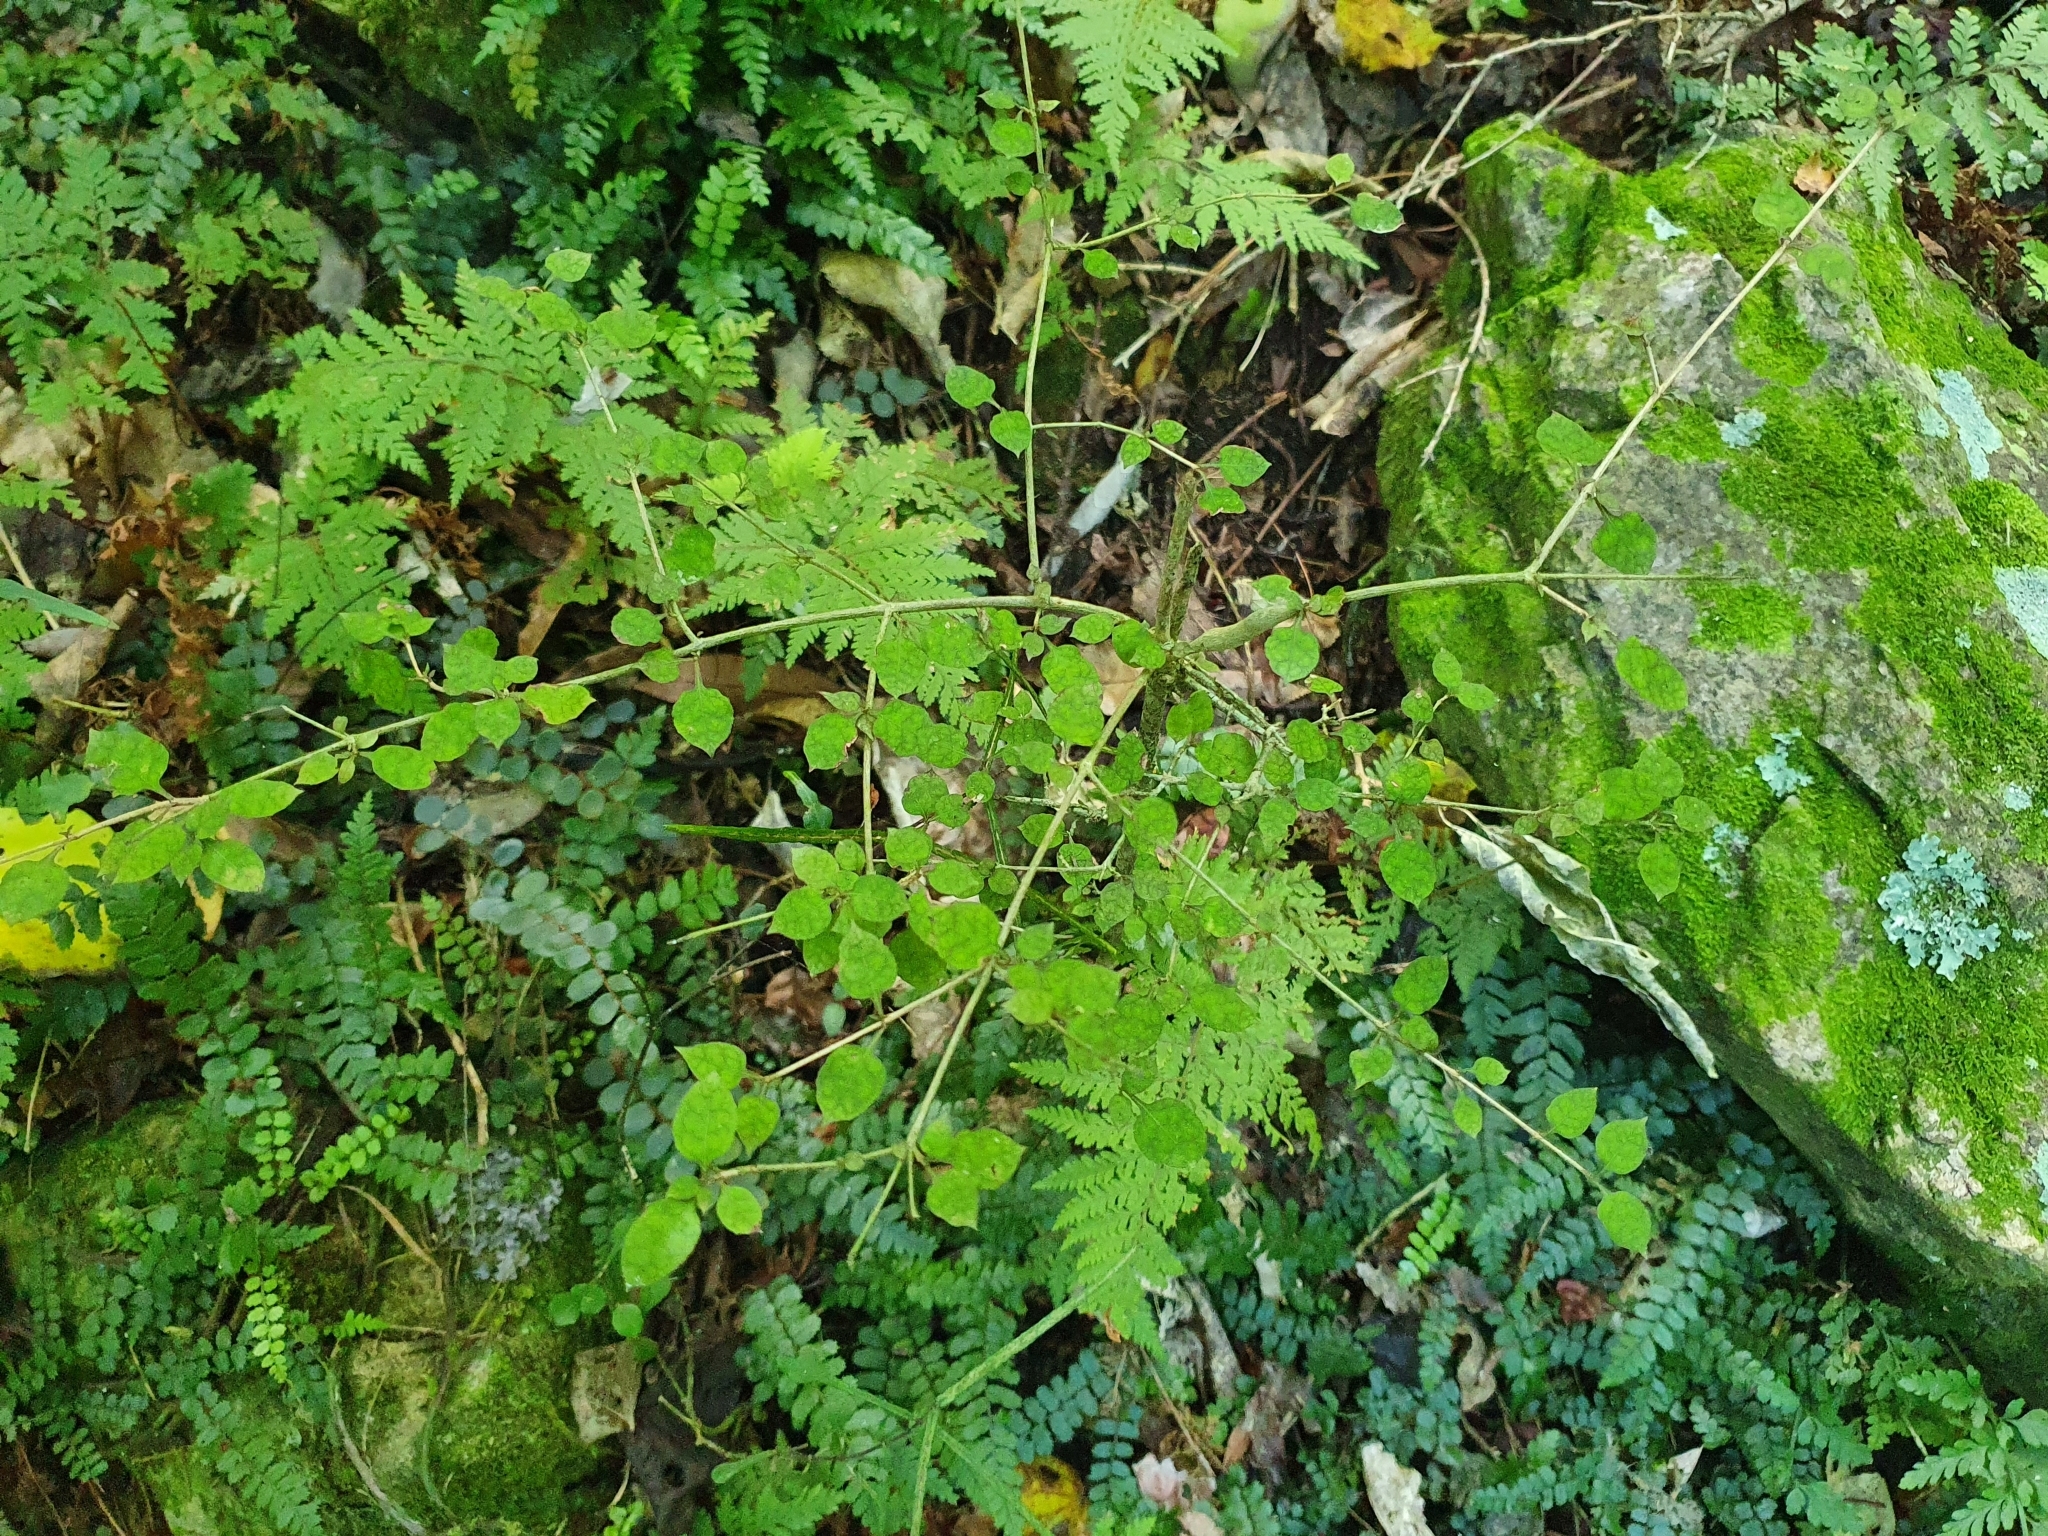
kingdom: Plantae
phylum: Tracheophyta
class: Magnoliopsida
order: Gentianales
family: Rubiaceae
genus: Coprosma
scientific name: Coprosma areolata
